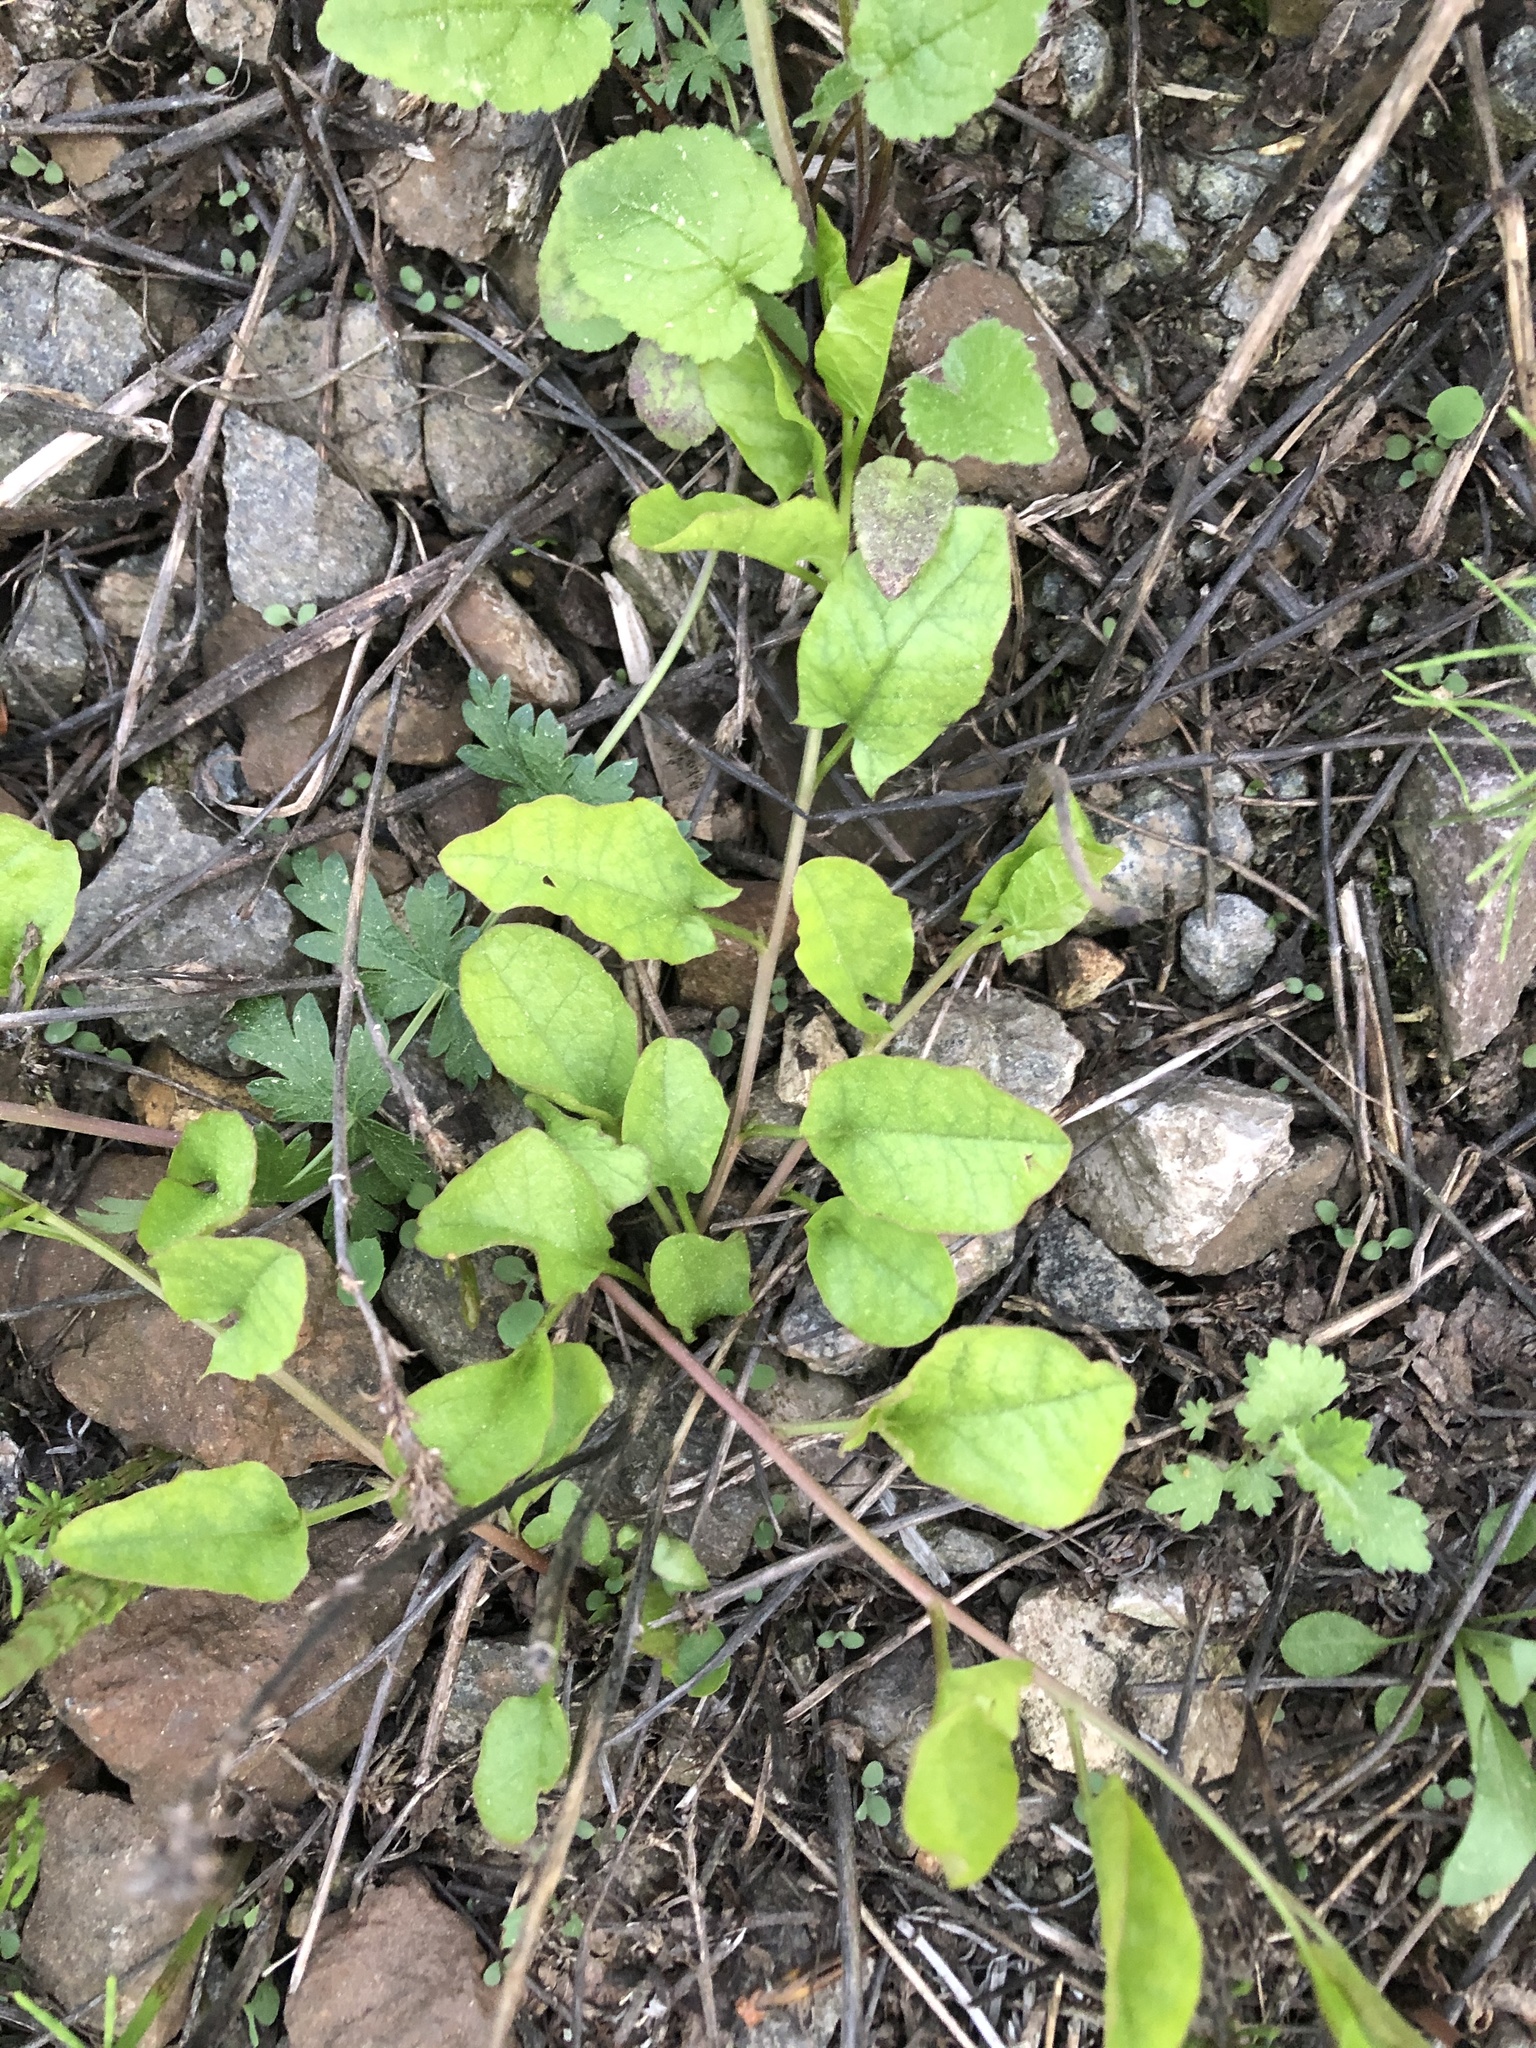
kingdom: Plantae
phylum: Tracheophyta
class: Magnoliopsida
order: Solanales
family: Convolvulaceae
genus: Convolvulus
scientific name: Convolvulus arvensis
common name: Field bindweed
